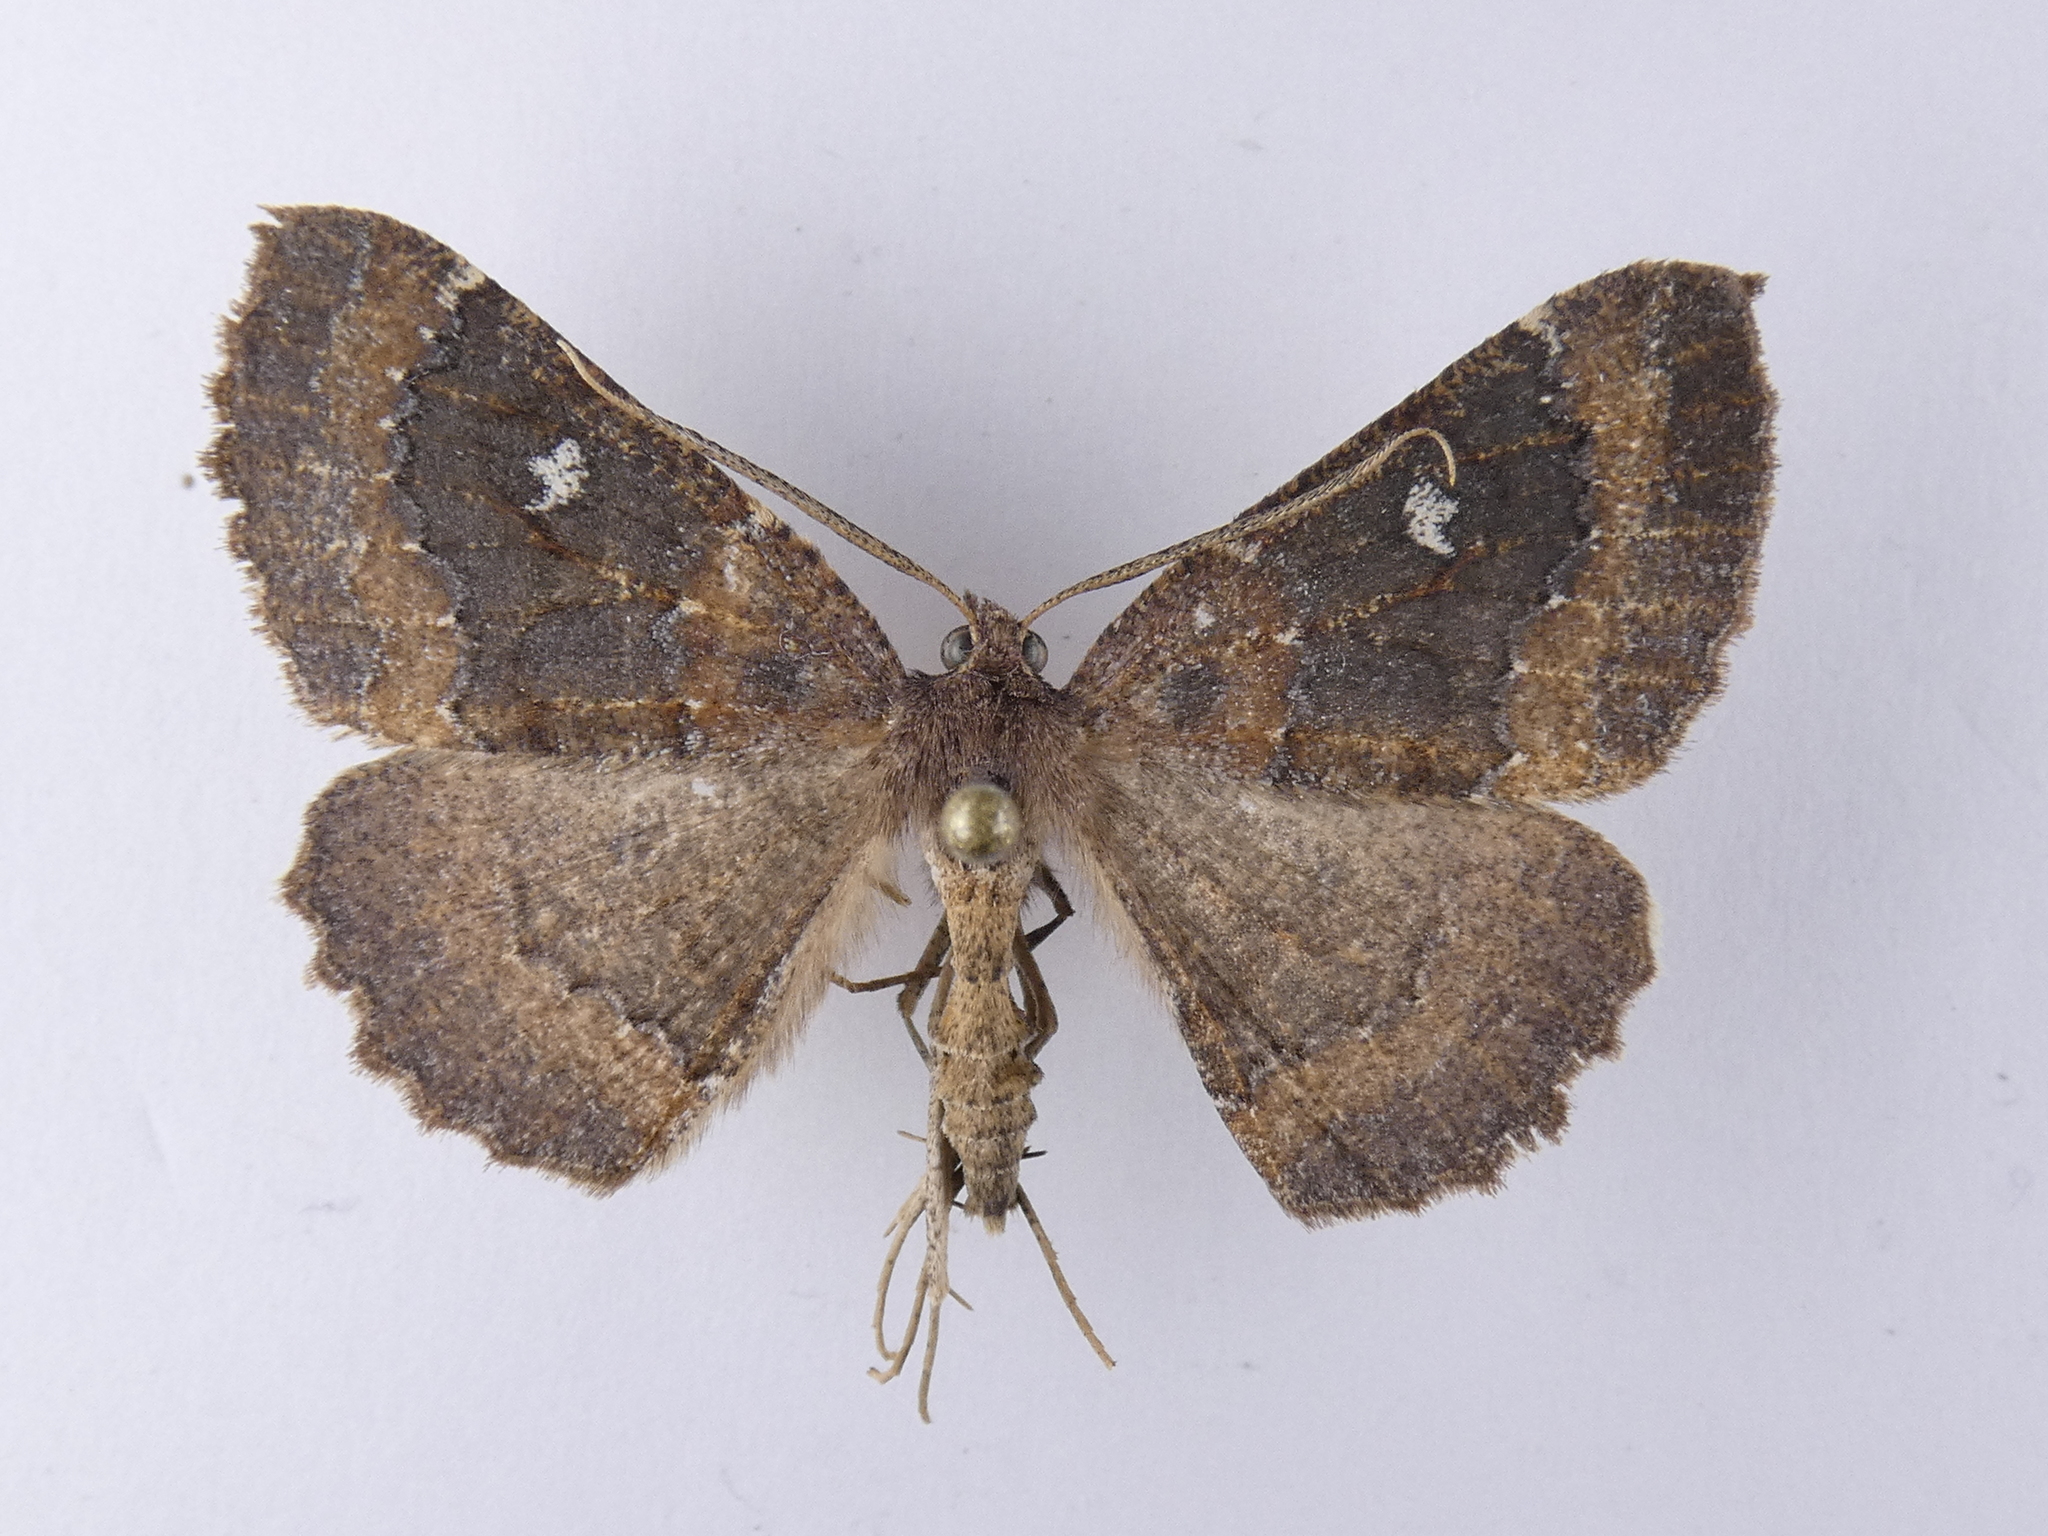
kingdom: Animalia
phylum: Arthropoda
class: Insecta
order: Lepidoptera
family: Geometridae
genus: Cleora
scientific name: Cleora scriptaria
